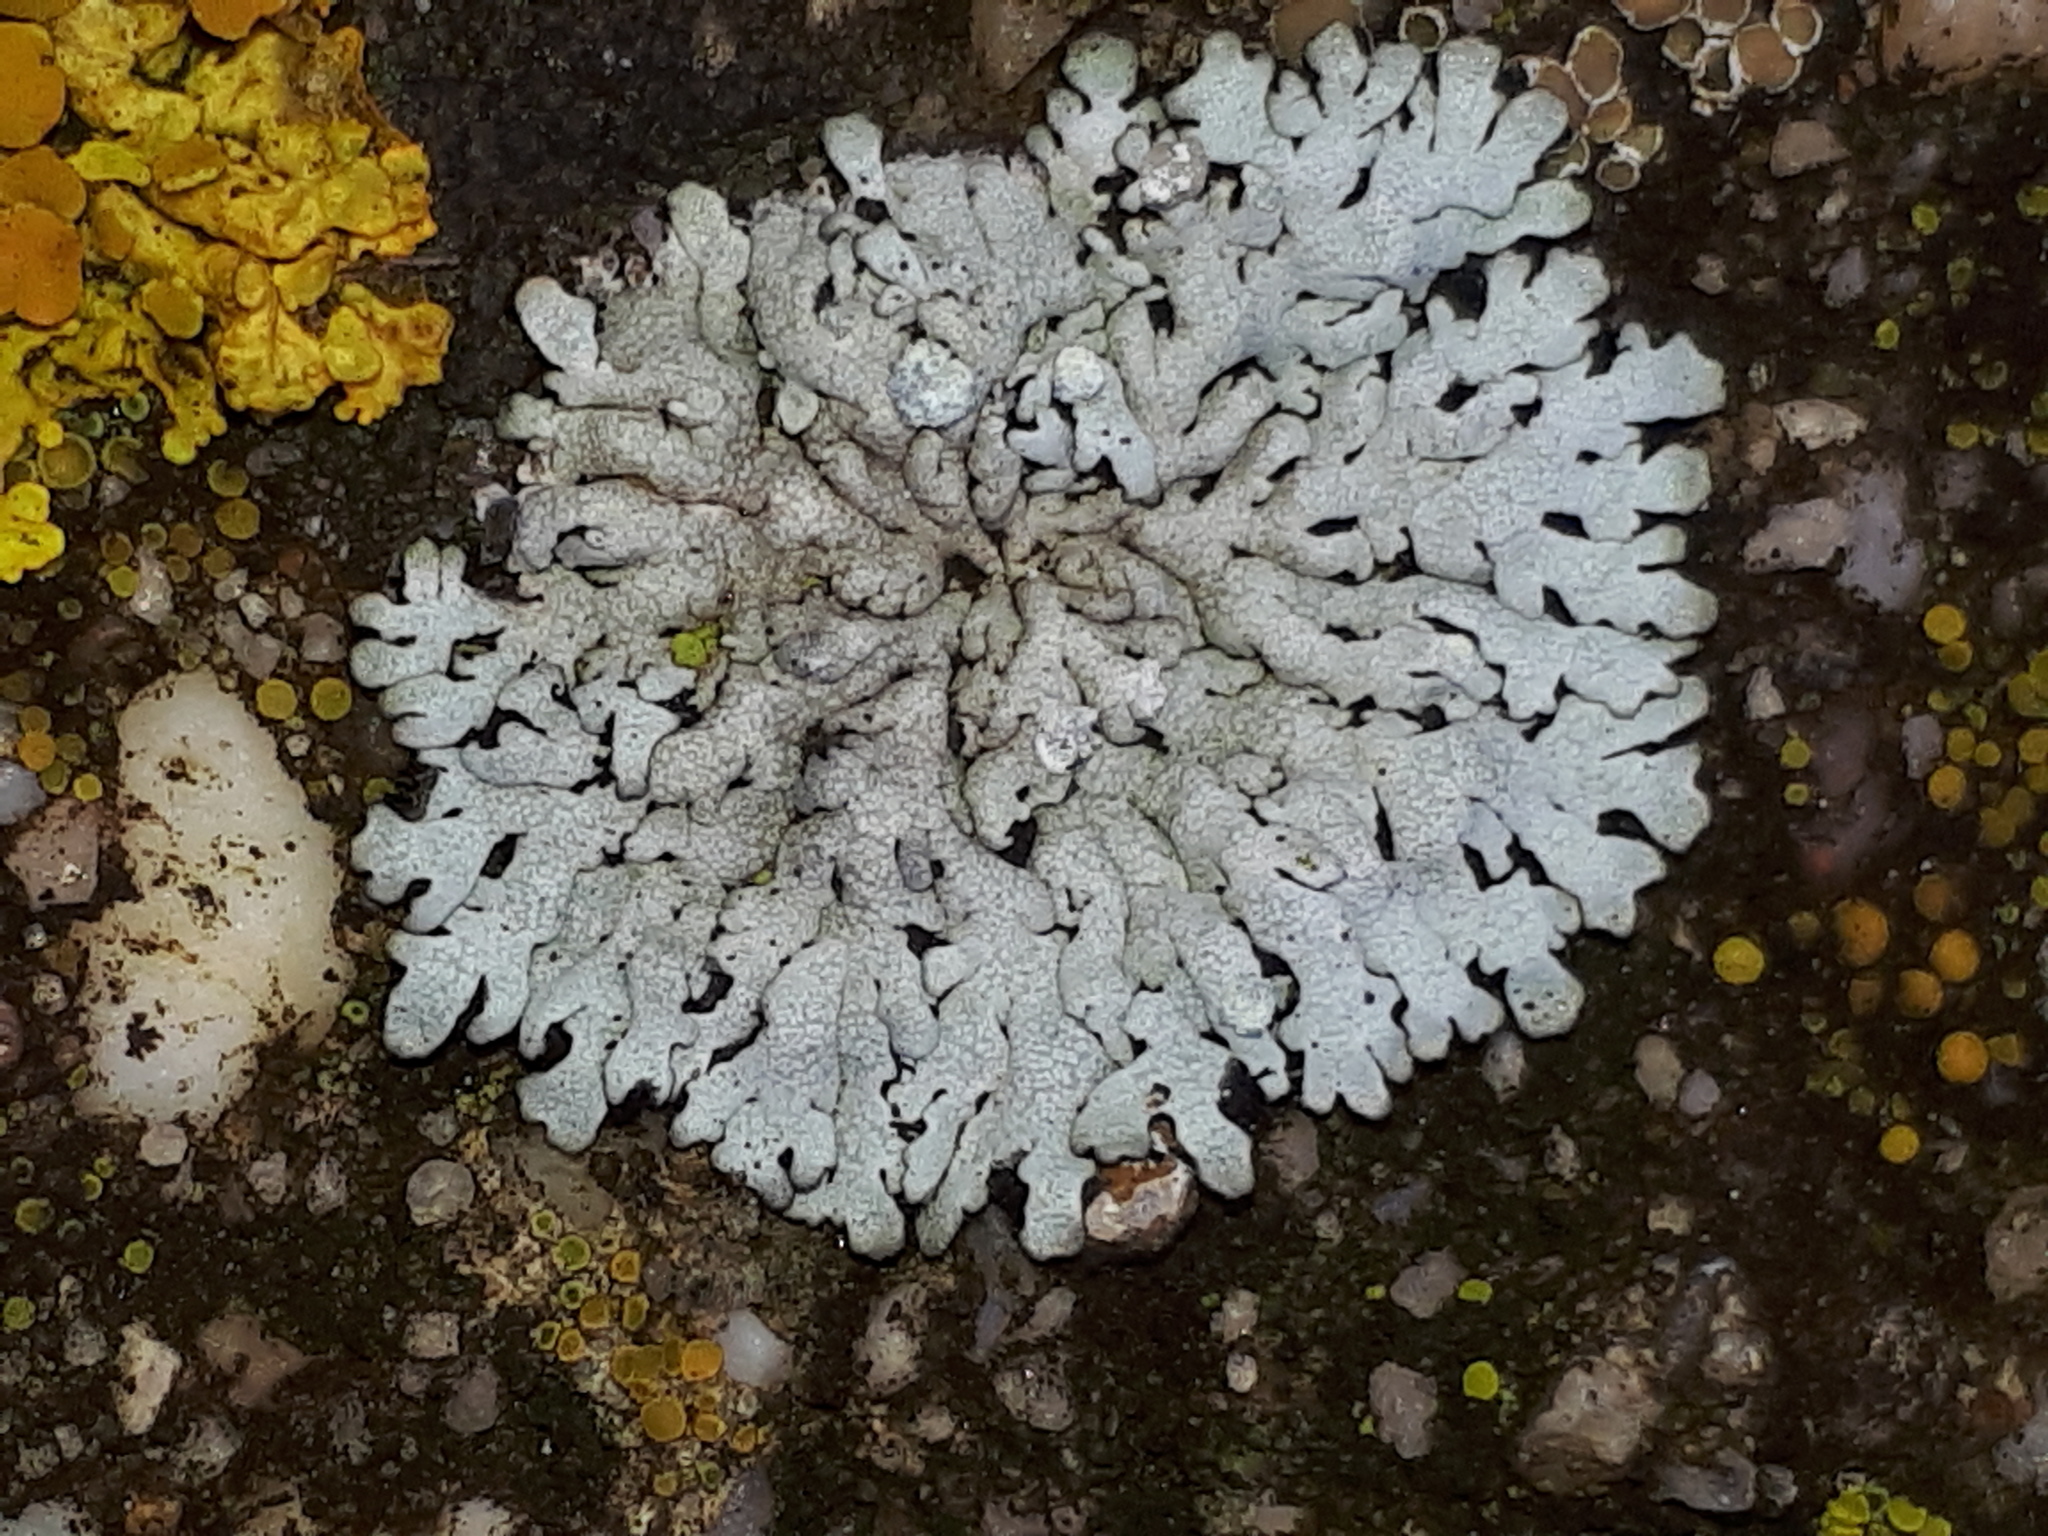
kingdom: Fungi
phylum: Ascomycota
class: Lecanoromycetes
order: Caliciales
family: Physciaceae
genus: Physcia
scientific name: Physcia caesia
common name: Blue-gray rosette lichen
